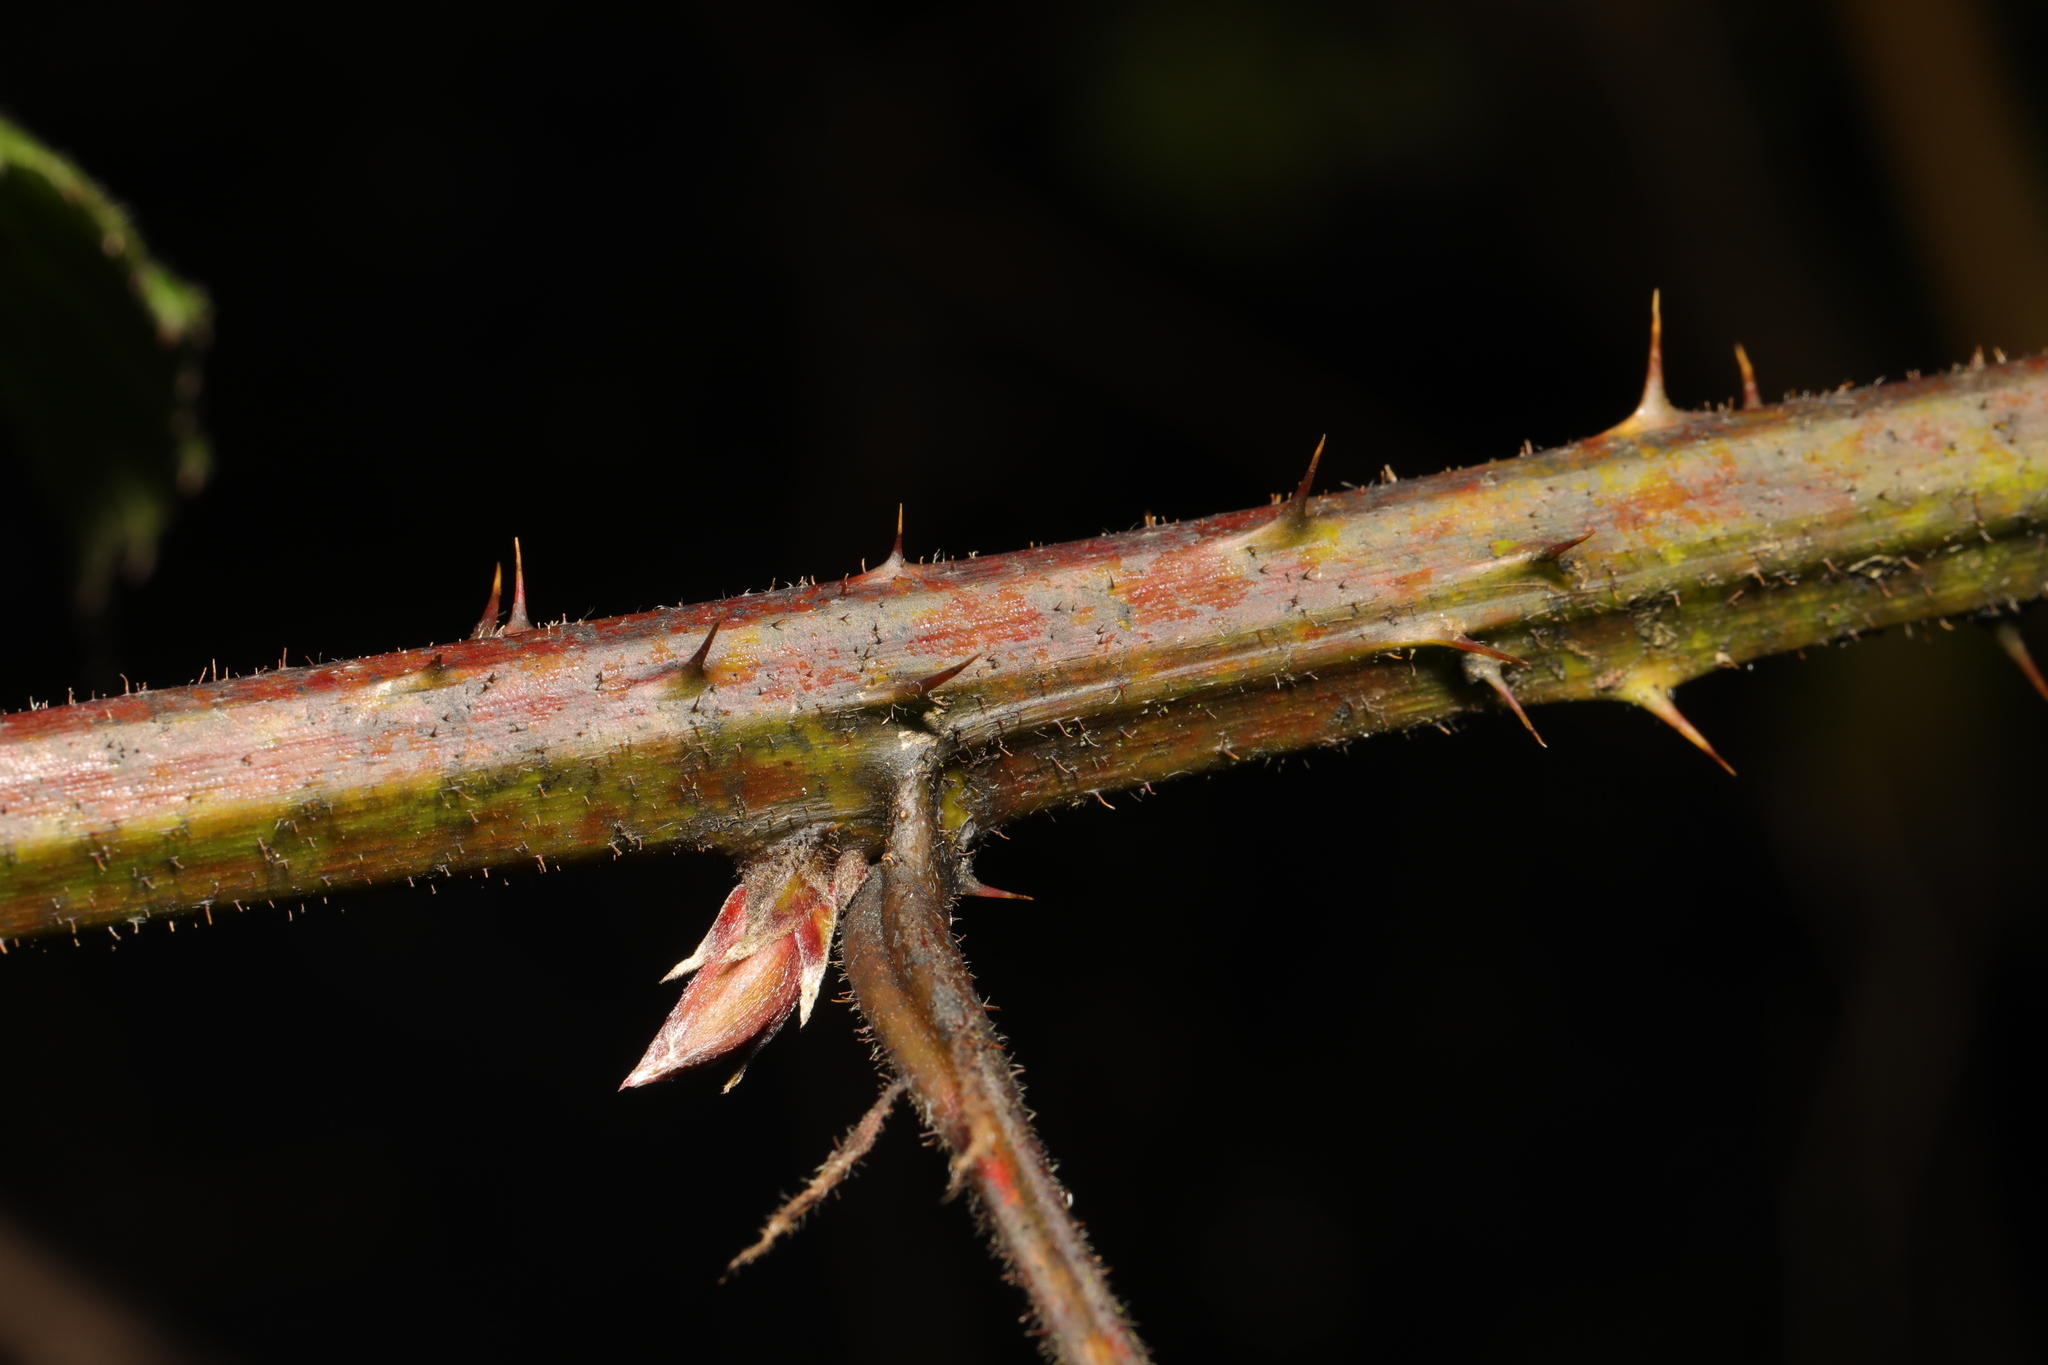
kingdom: Plantae
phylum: Tracheophyta
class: Magnoliopsida
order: Rosales
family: Rosaceae
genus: Rubus
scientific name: Rubus rufescens
